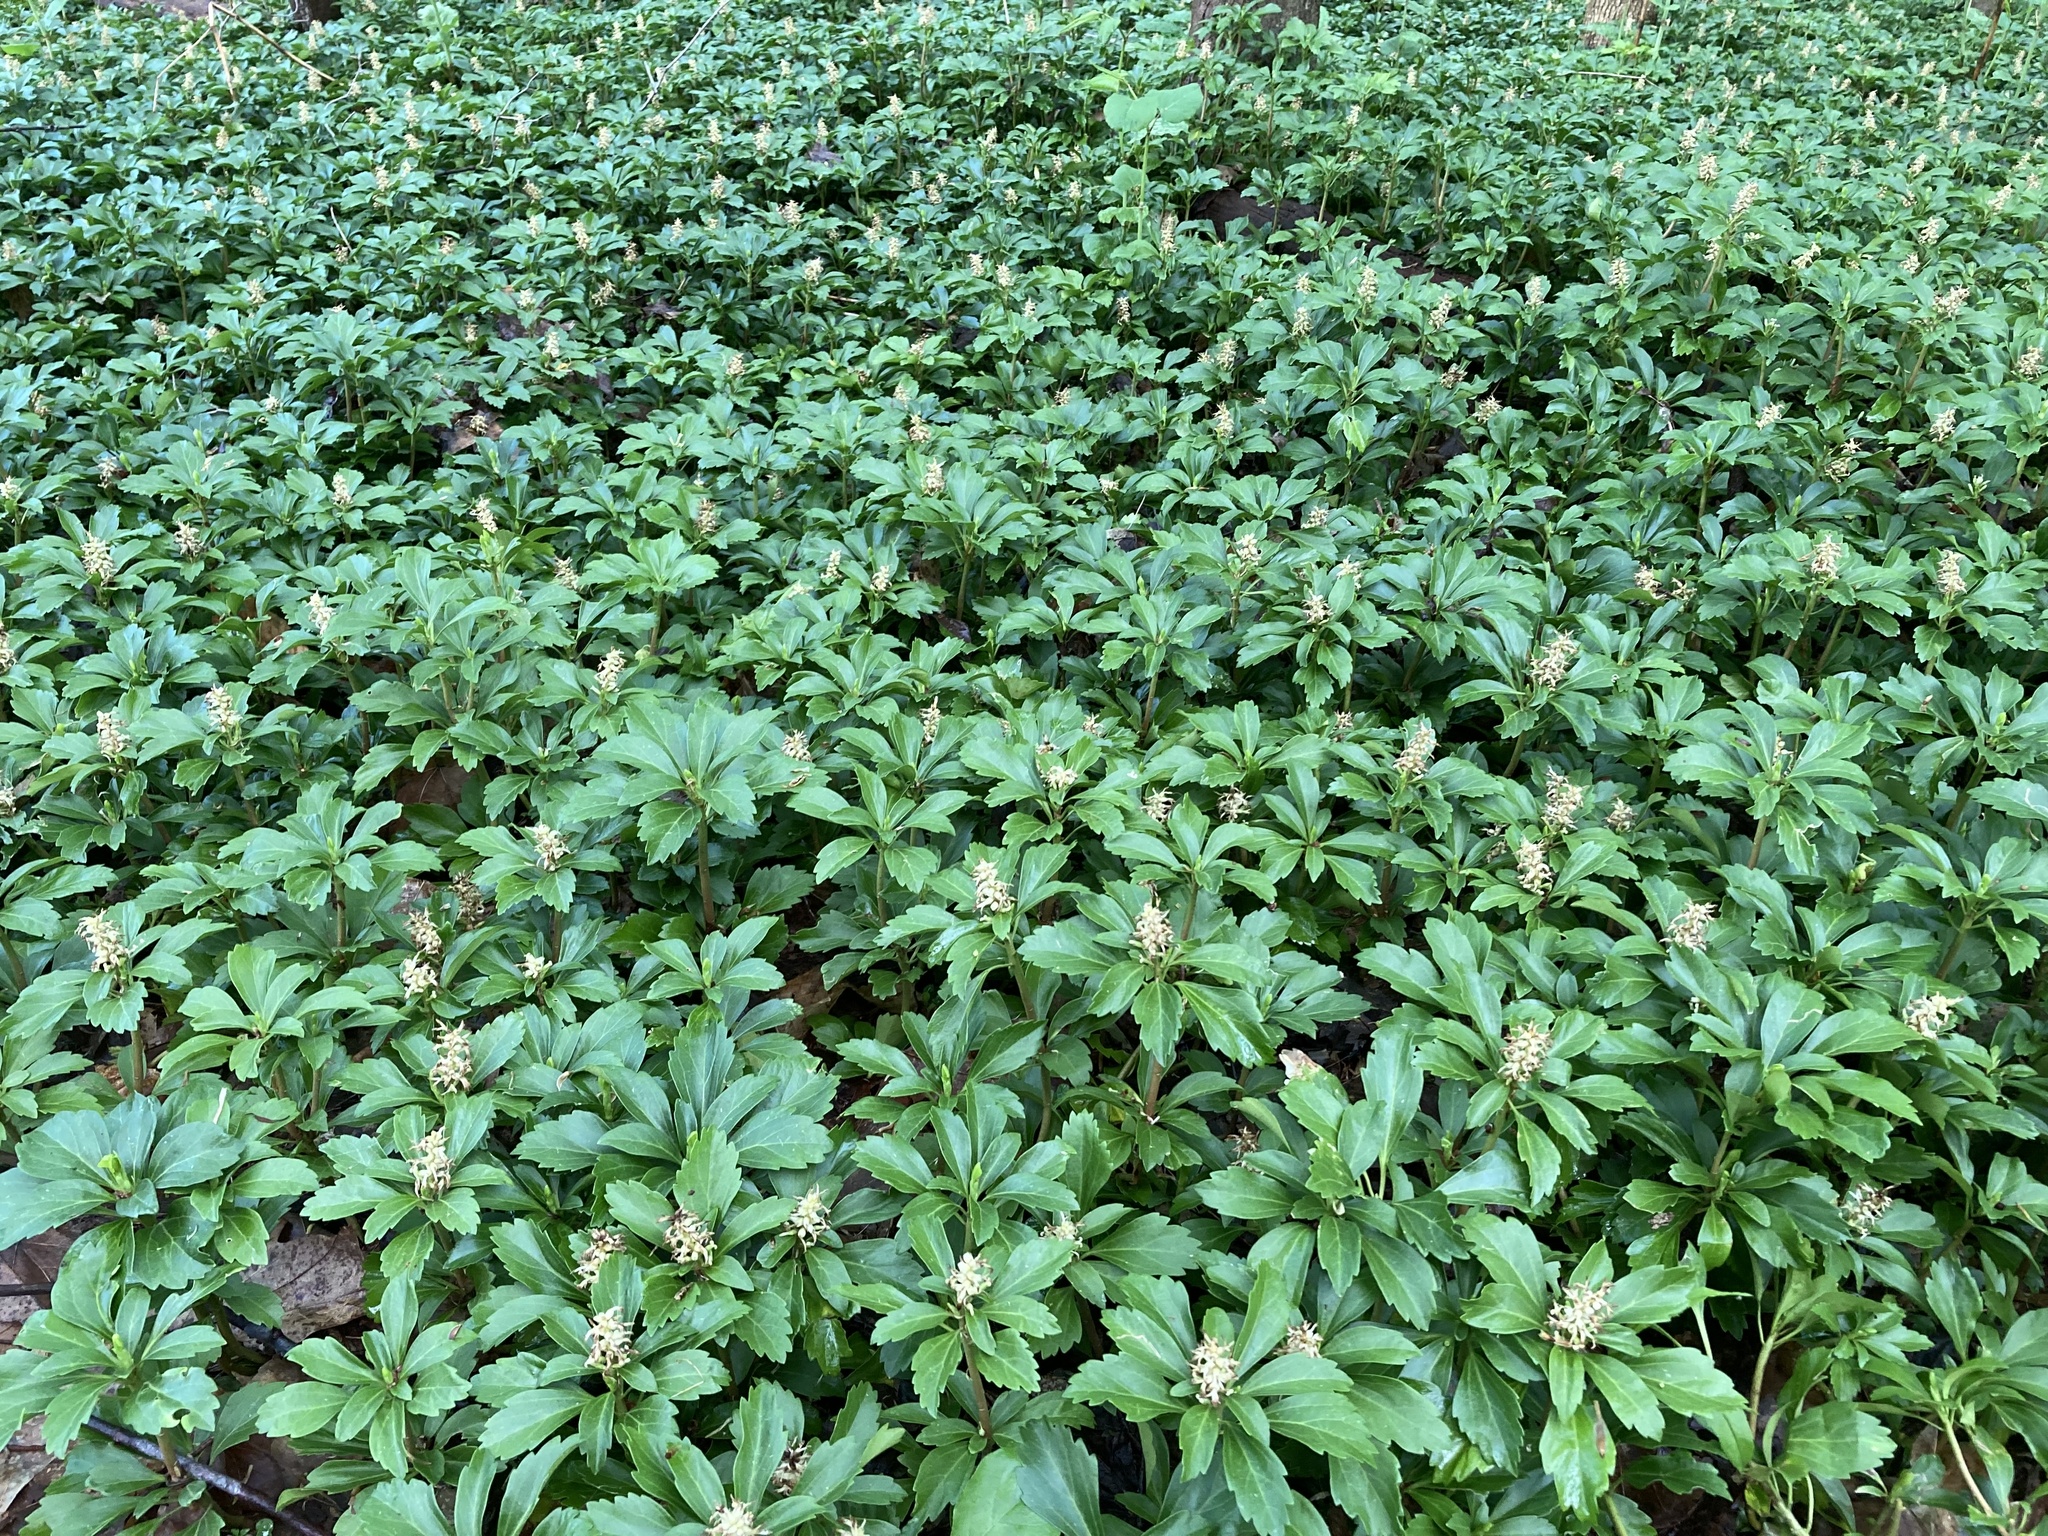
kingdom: Plantae
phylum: Tracheophyta
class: Magnoliopsida
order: Buxales
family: Buxaceae
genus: Pachysandra
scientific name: Pachysandra terminalis
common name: Japanese pachysandra
